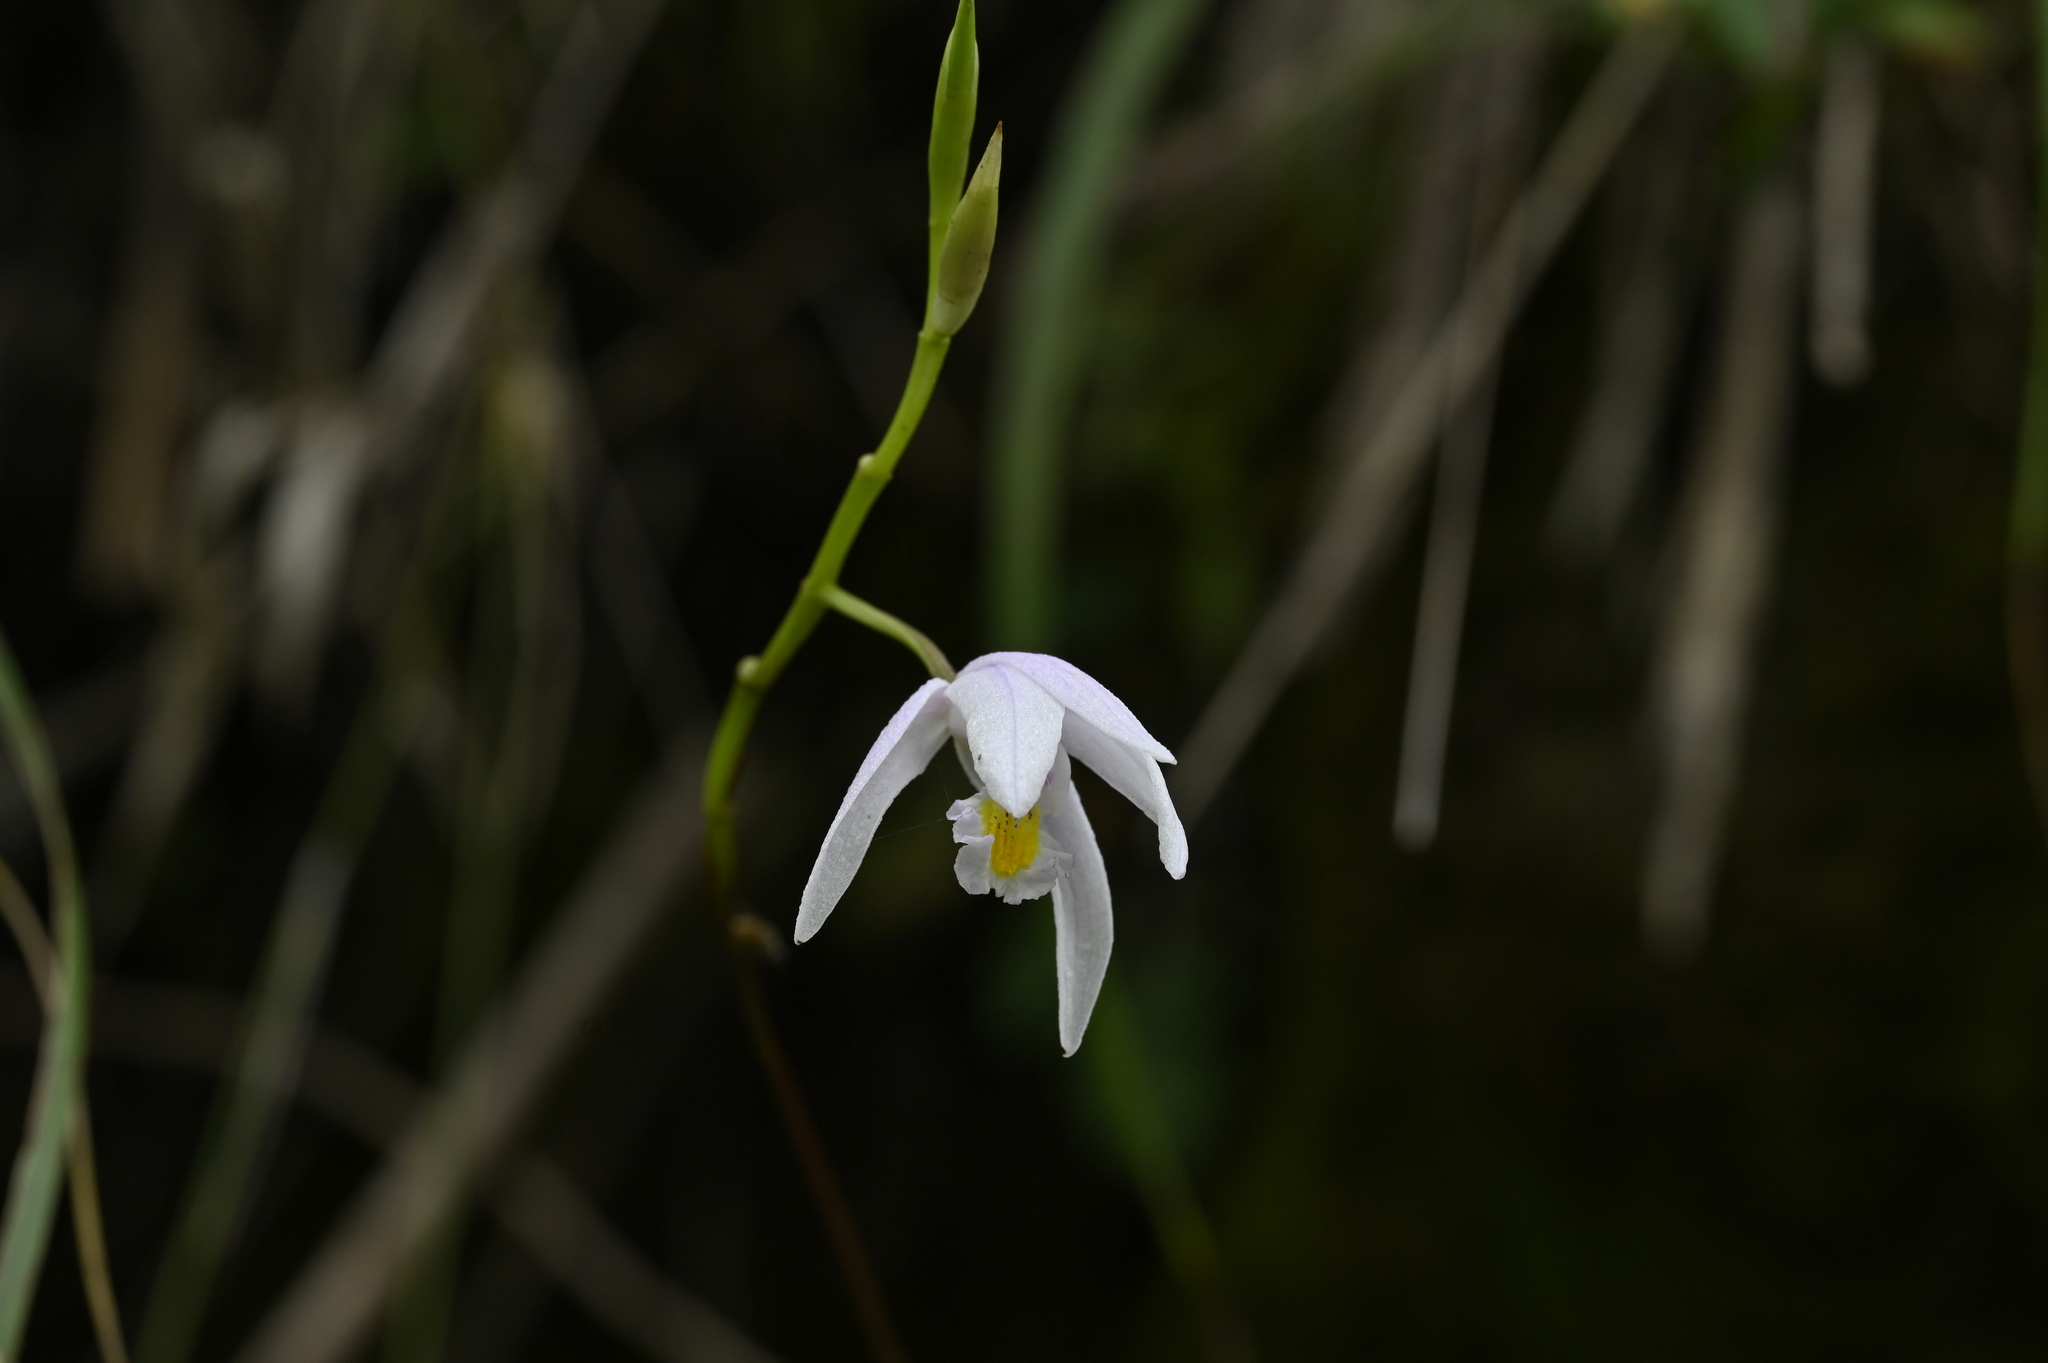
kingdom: Plantae
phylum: Tracheophyta
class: Liliopsida
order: Asparagales
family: Orchidaceae
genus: Bletilla
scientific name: Bletilla formosana
